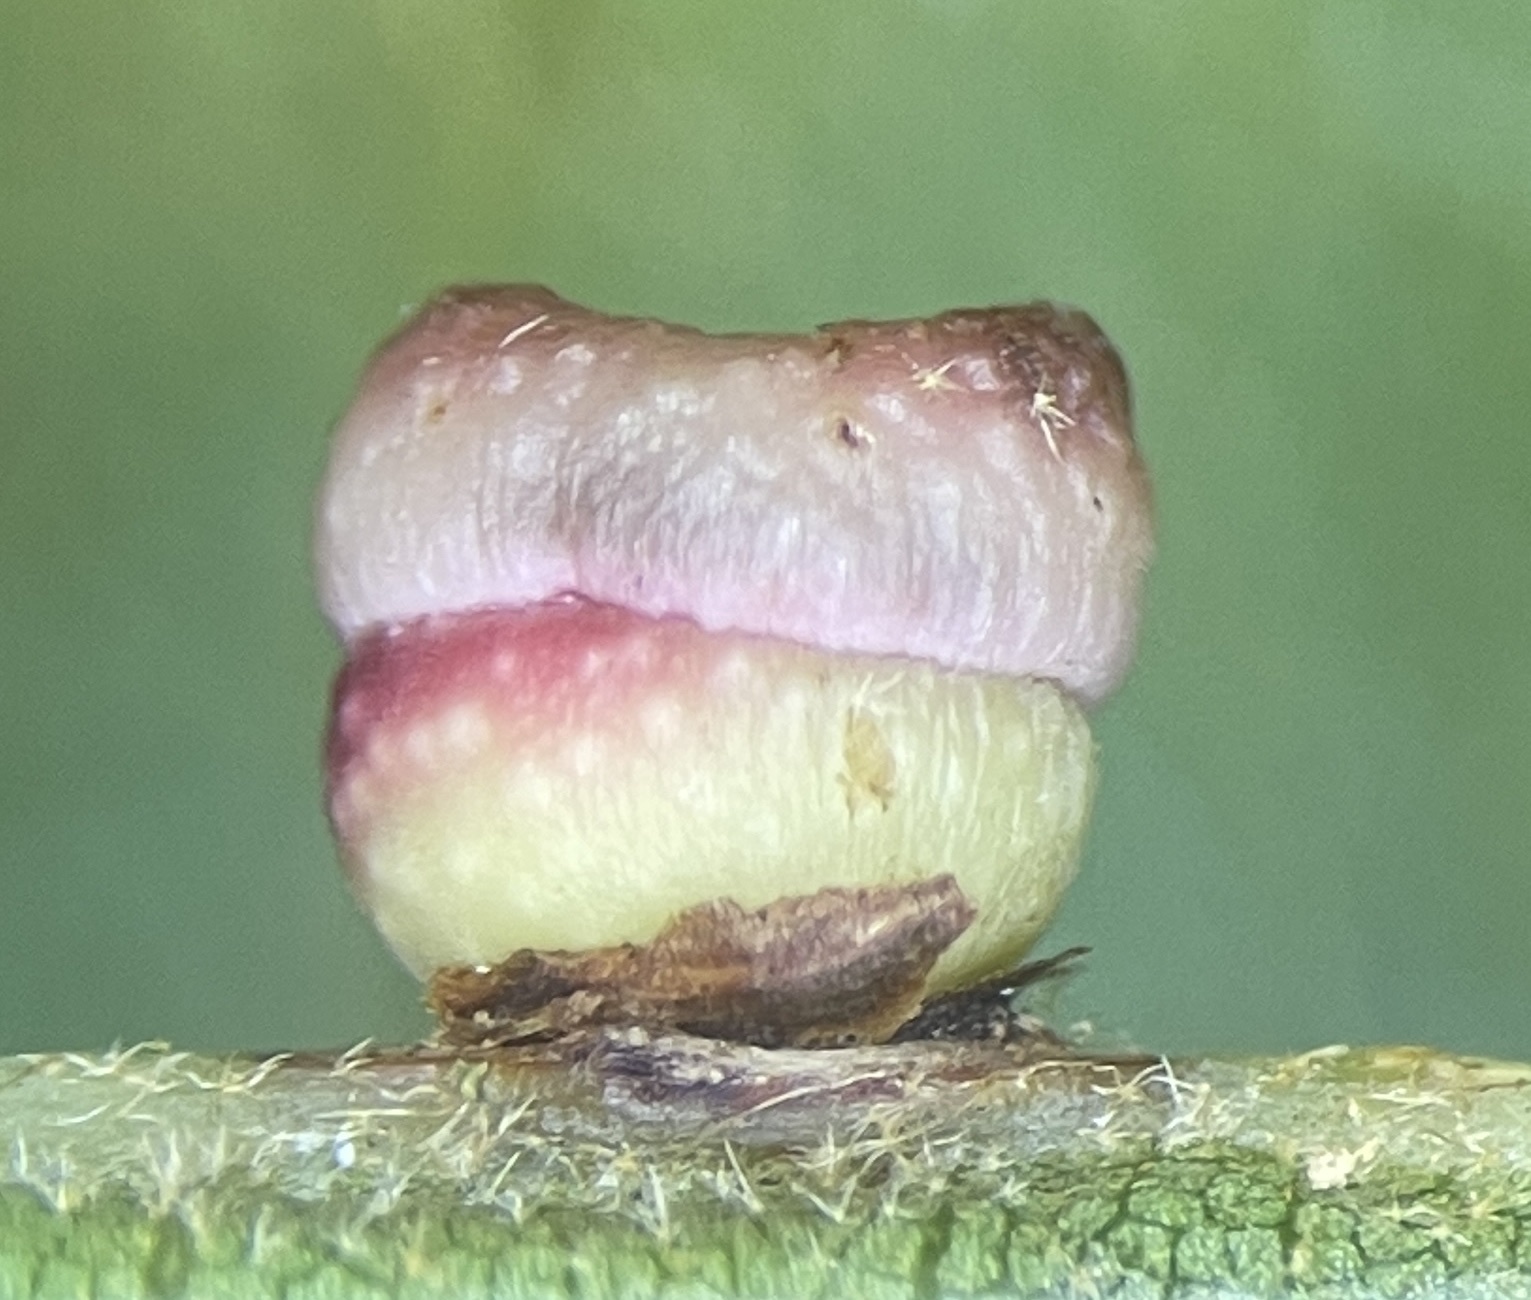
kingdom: Animalia
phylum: Arthropoda
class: Insecta
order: Hymenoptera
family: Cynipidae
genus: Kokkocynips
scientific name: Kokkocynips rileyi
